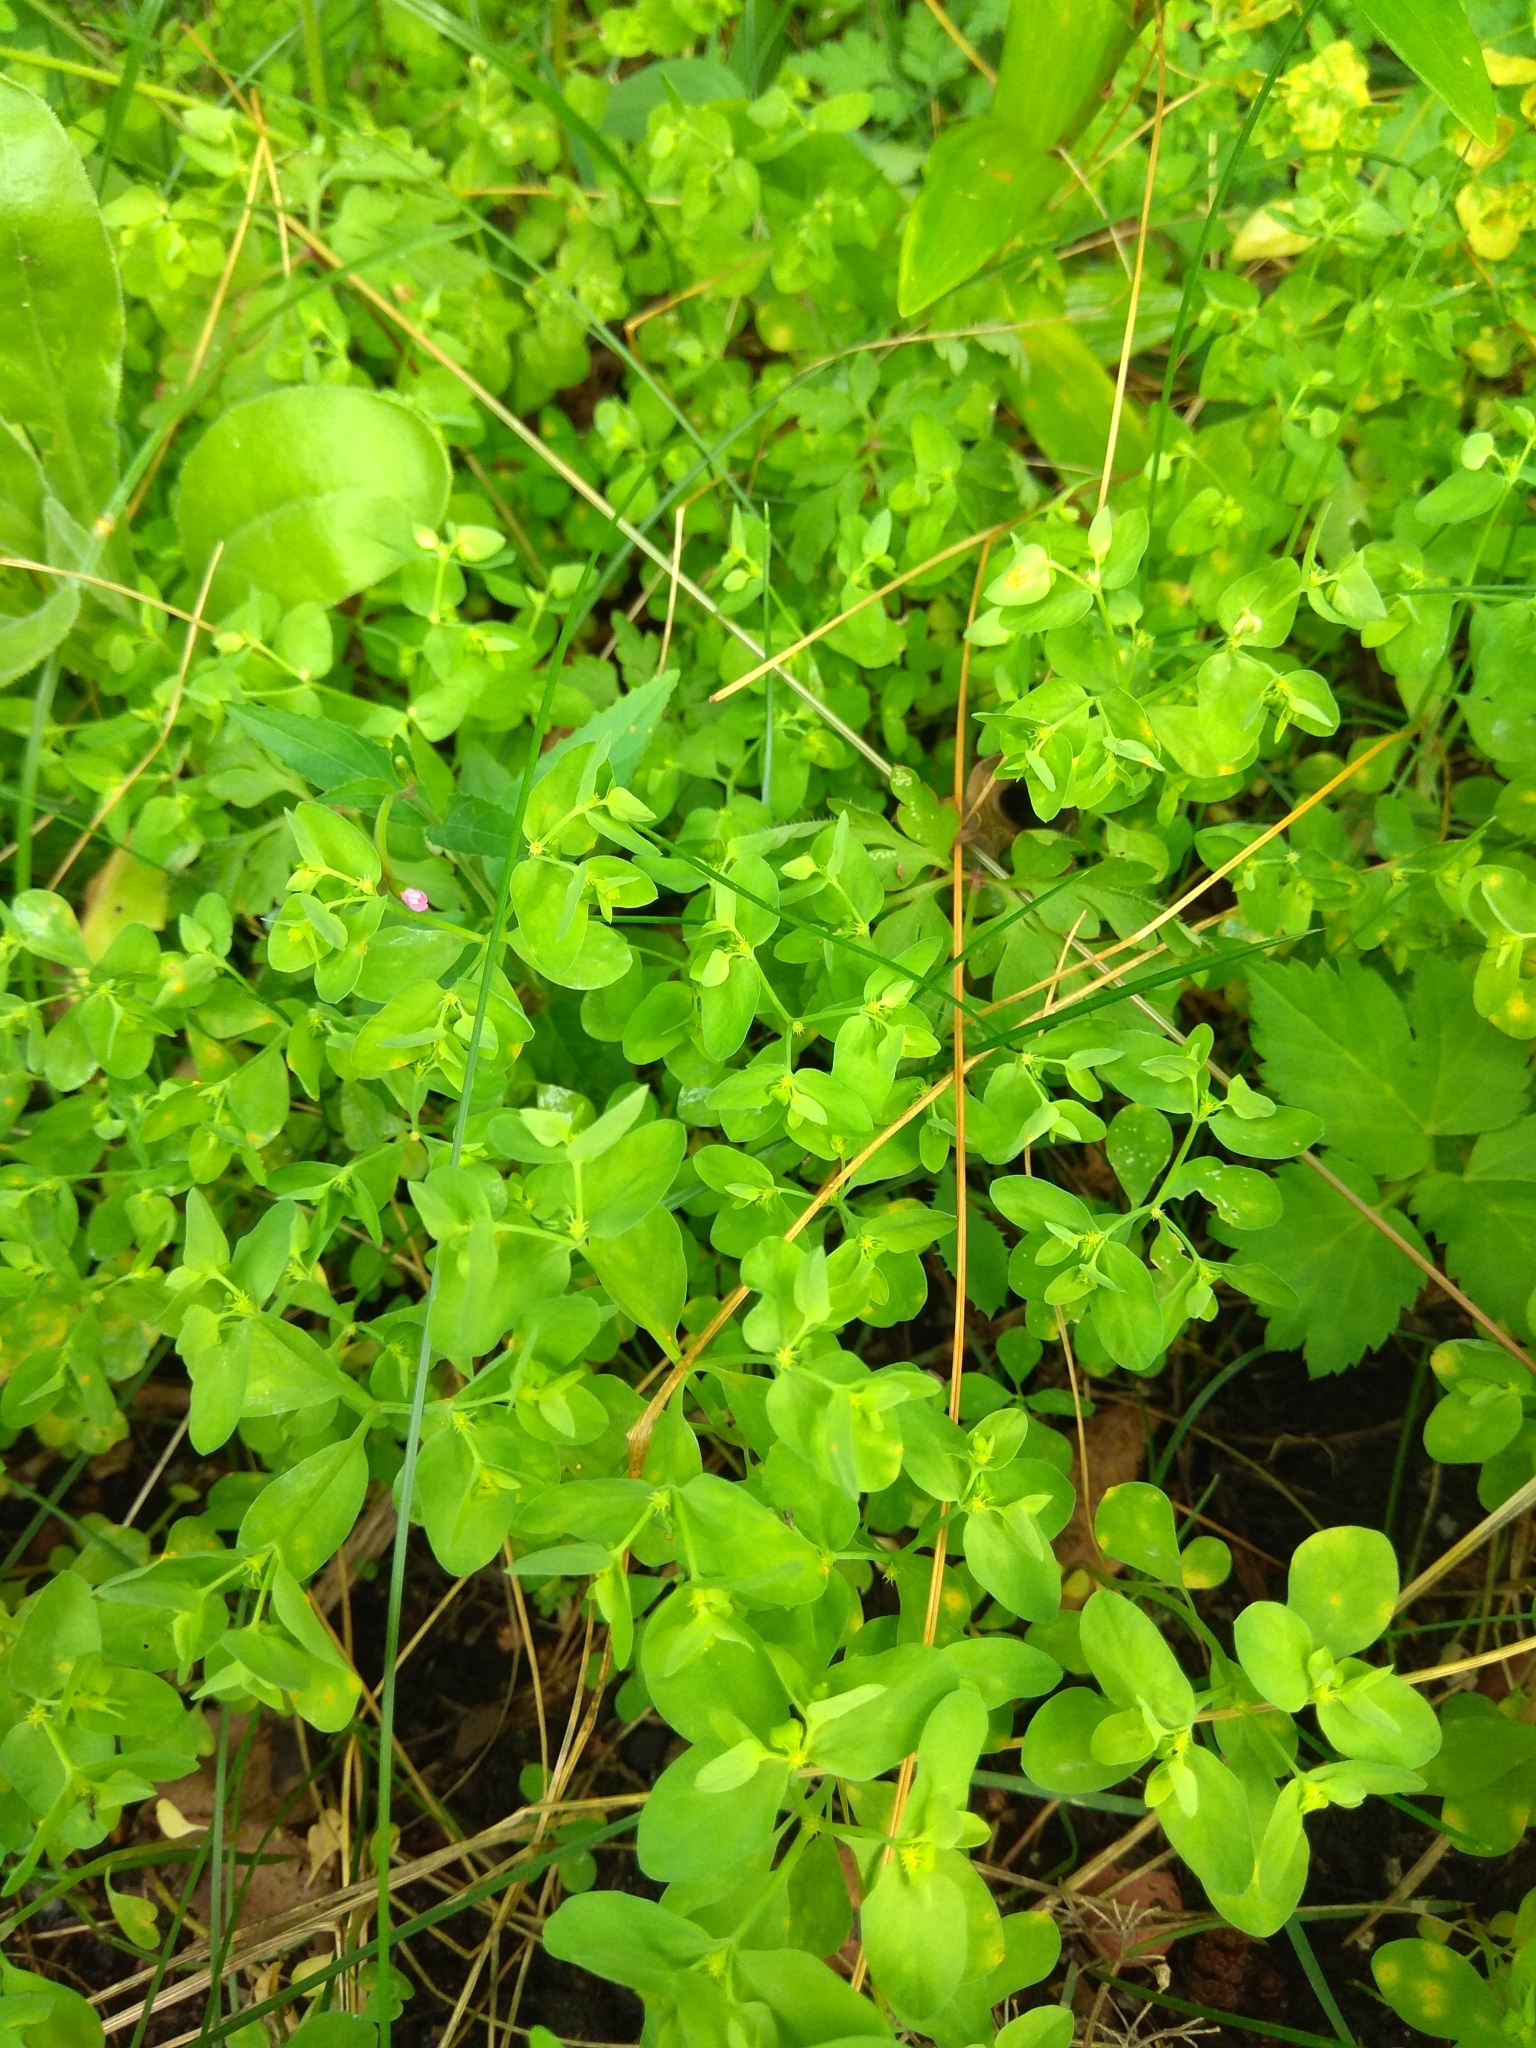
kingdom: Plantae
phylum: Tracheophyta
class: Magnoliopsida
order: Malpighiales
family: Euphorbiaceae
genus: Euphorbia
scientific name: Euphorbia peplus
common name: Petty spurge
